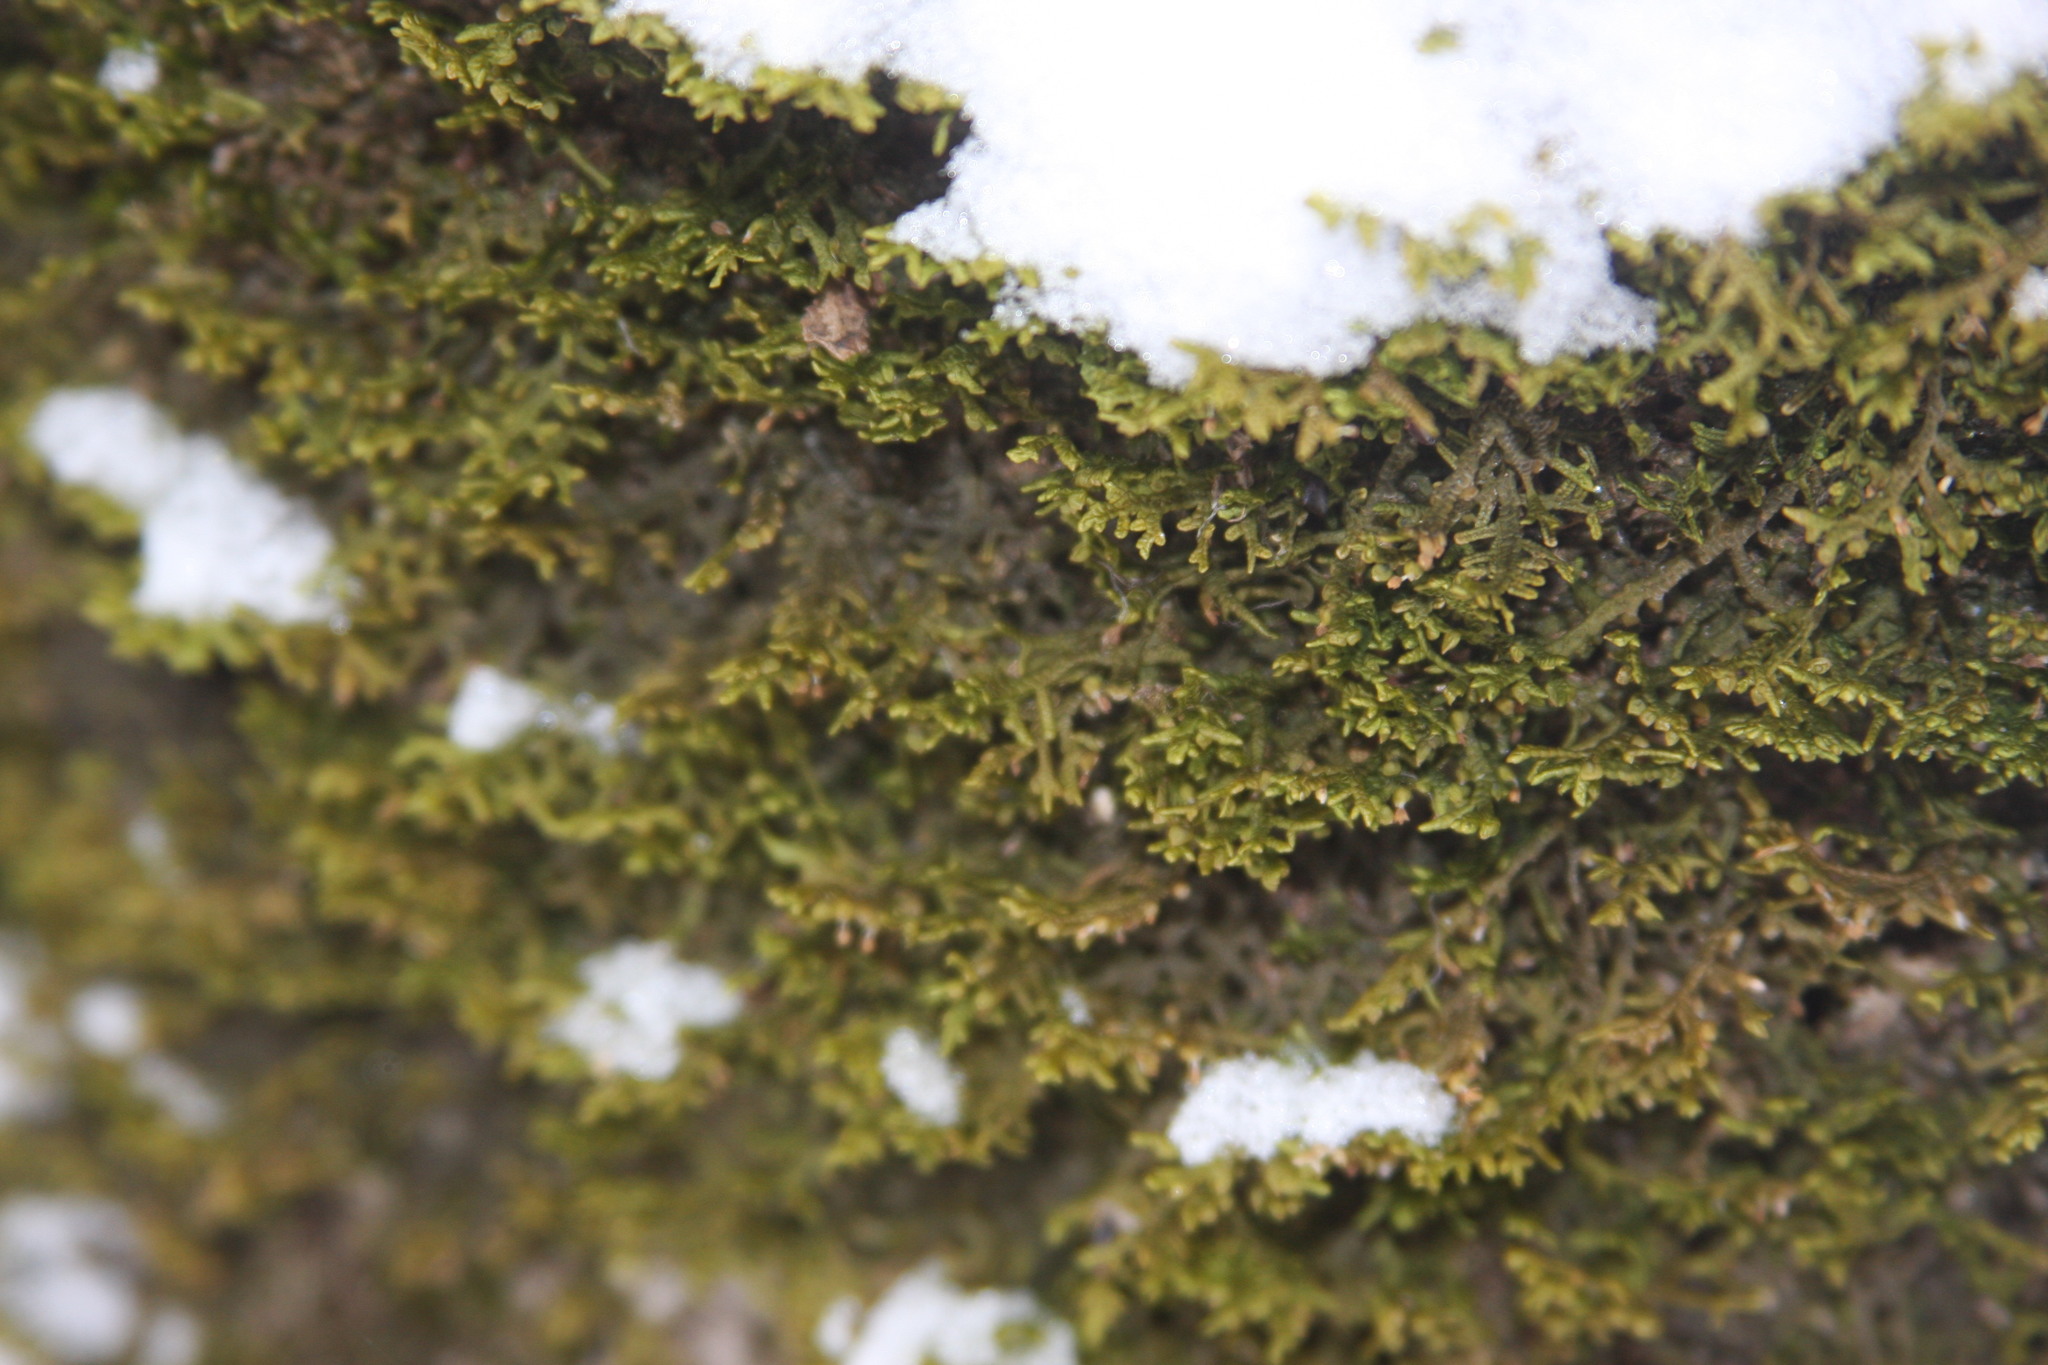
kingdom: Plantae
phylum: Marchantiophyta
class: Jungermanniopsida
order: Porellales
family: Porellaceae
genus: Porella
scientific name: Porella platyphylla
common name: Wall scalewort
